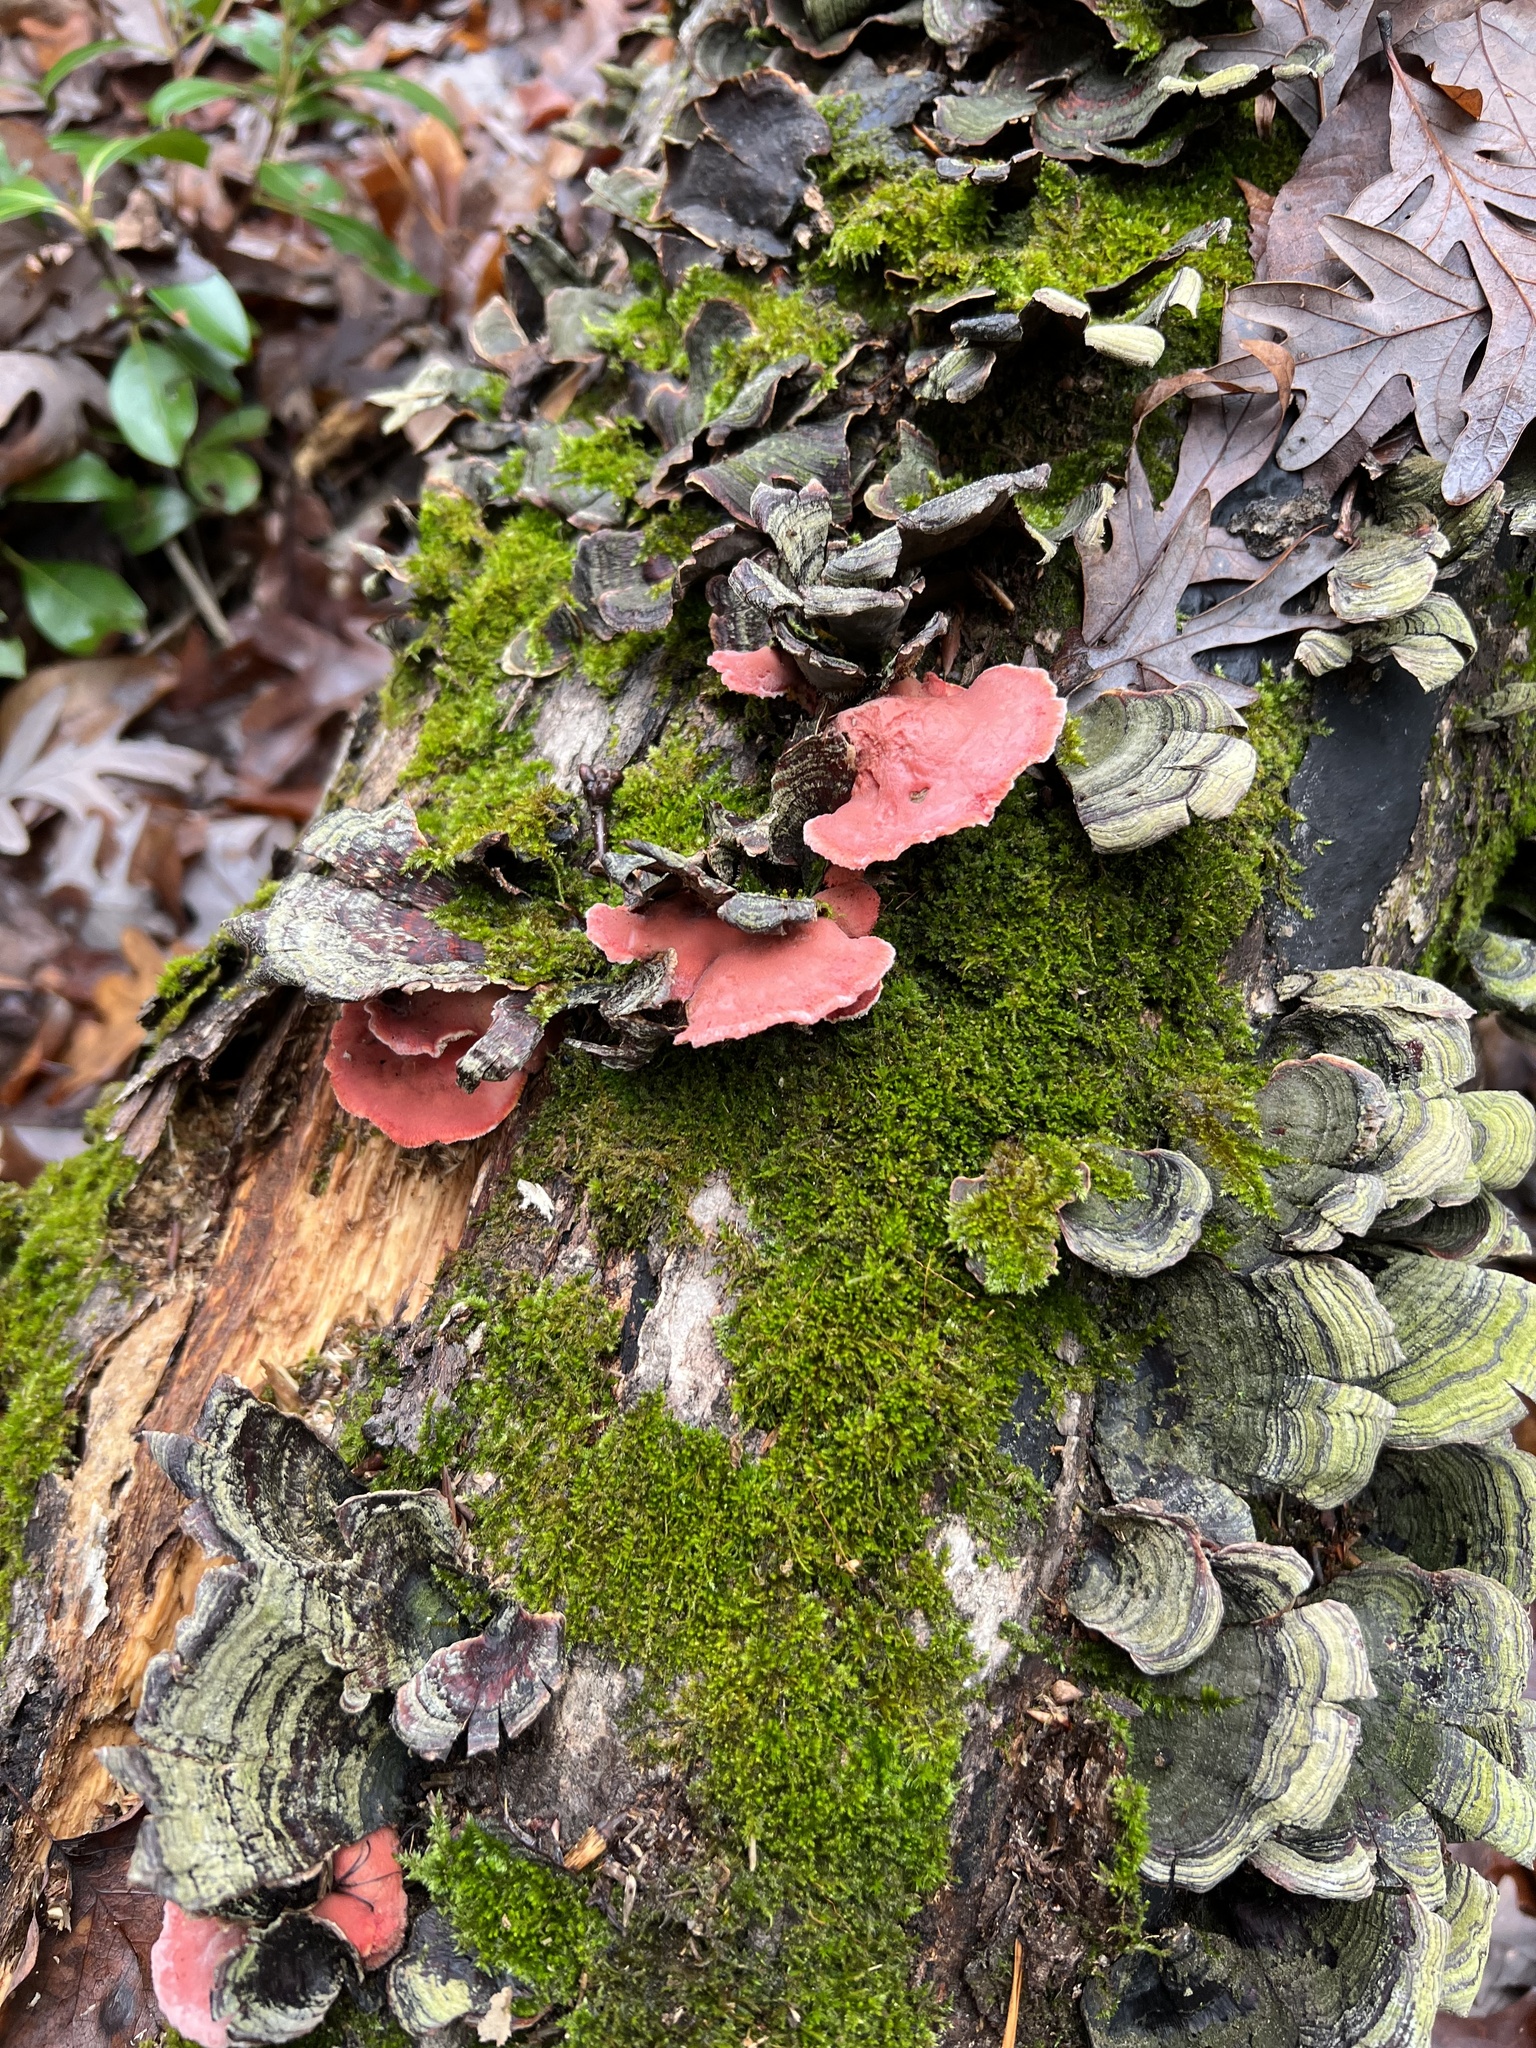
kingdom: Fungi
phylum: Basidiomycota
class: Agaricomycetes
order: Polyporales
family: Irpicaceae
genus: Byssomerulius
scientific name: Byssomerulius incarnatus
